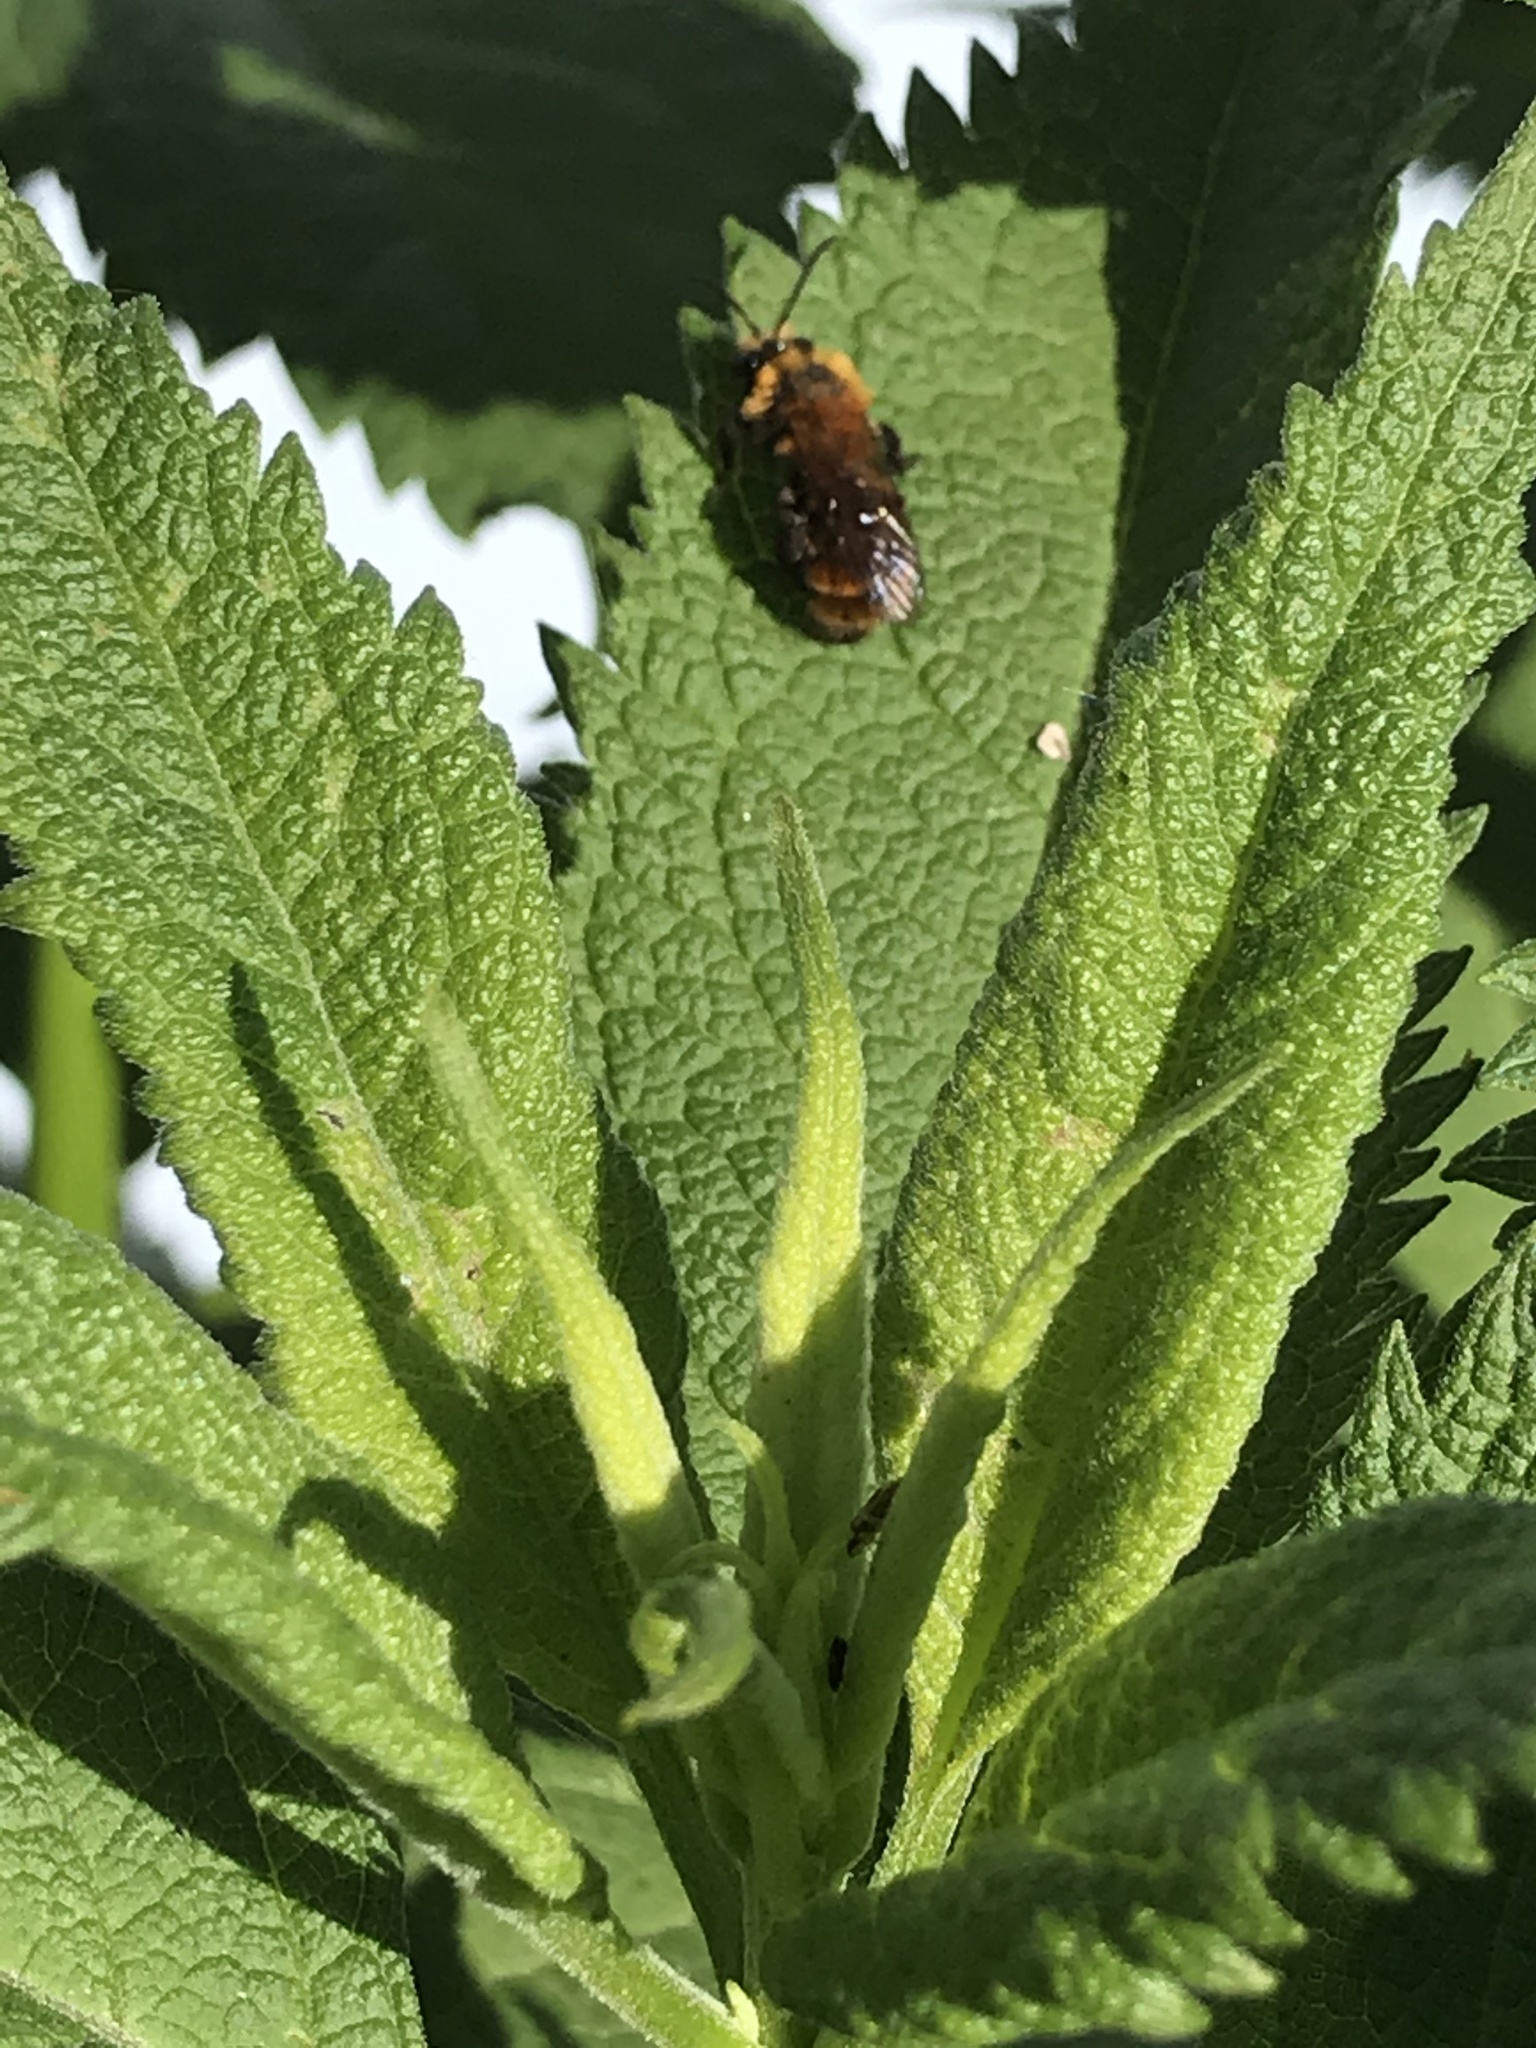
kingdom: Animalia
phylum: Arthropoda
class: Insecta
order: Hymenoptera
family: Andrenidae
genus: Andrena
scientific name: Andrena milwaukeensis
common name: Milwaukee mining bee
